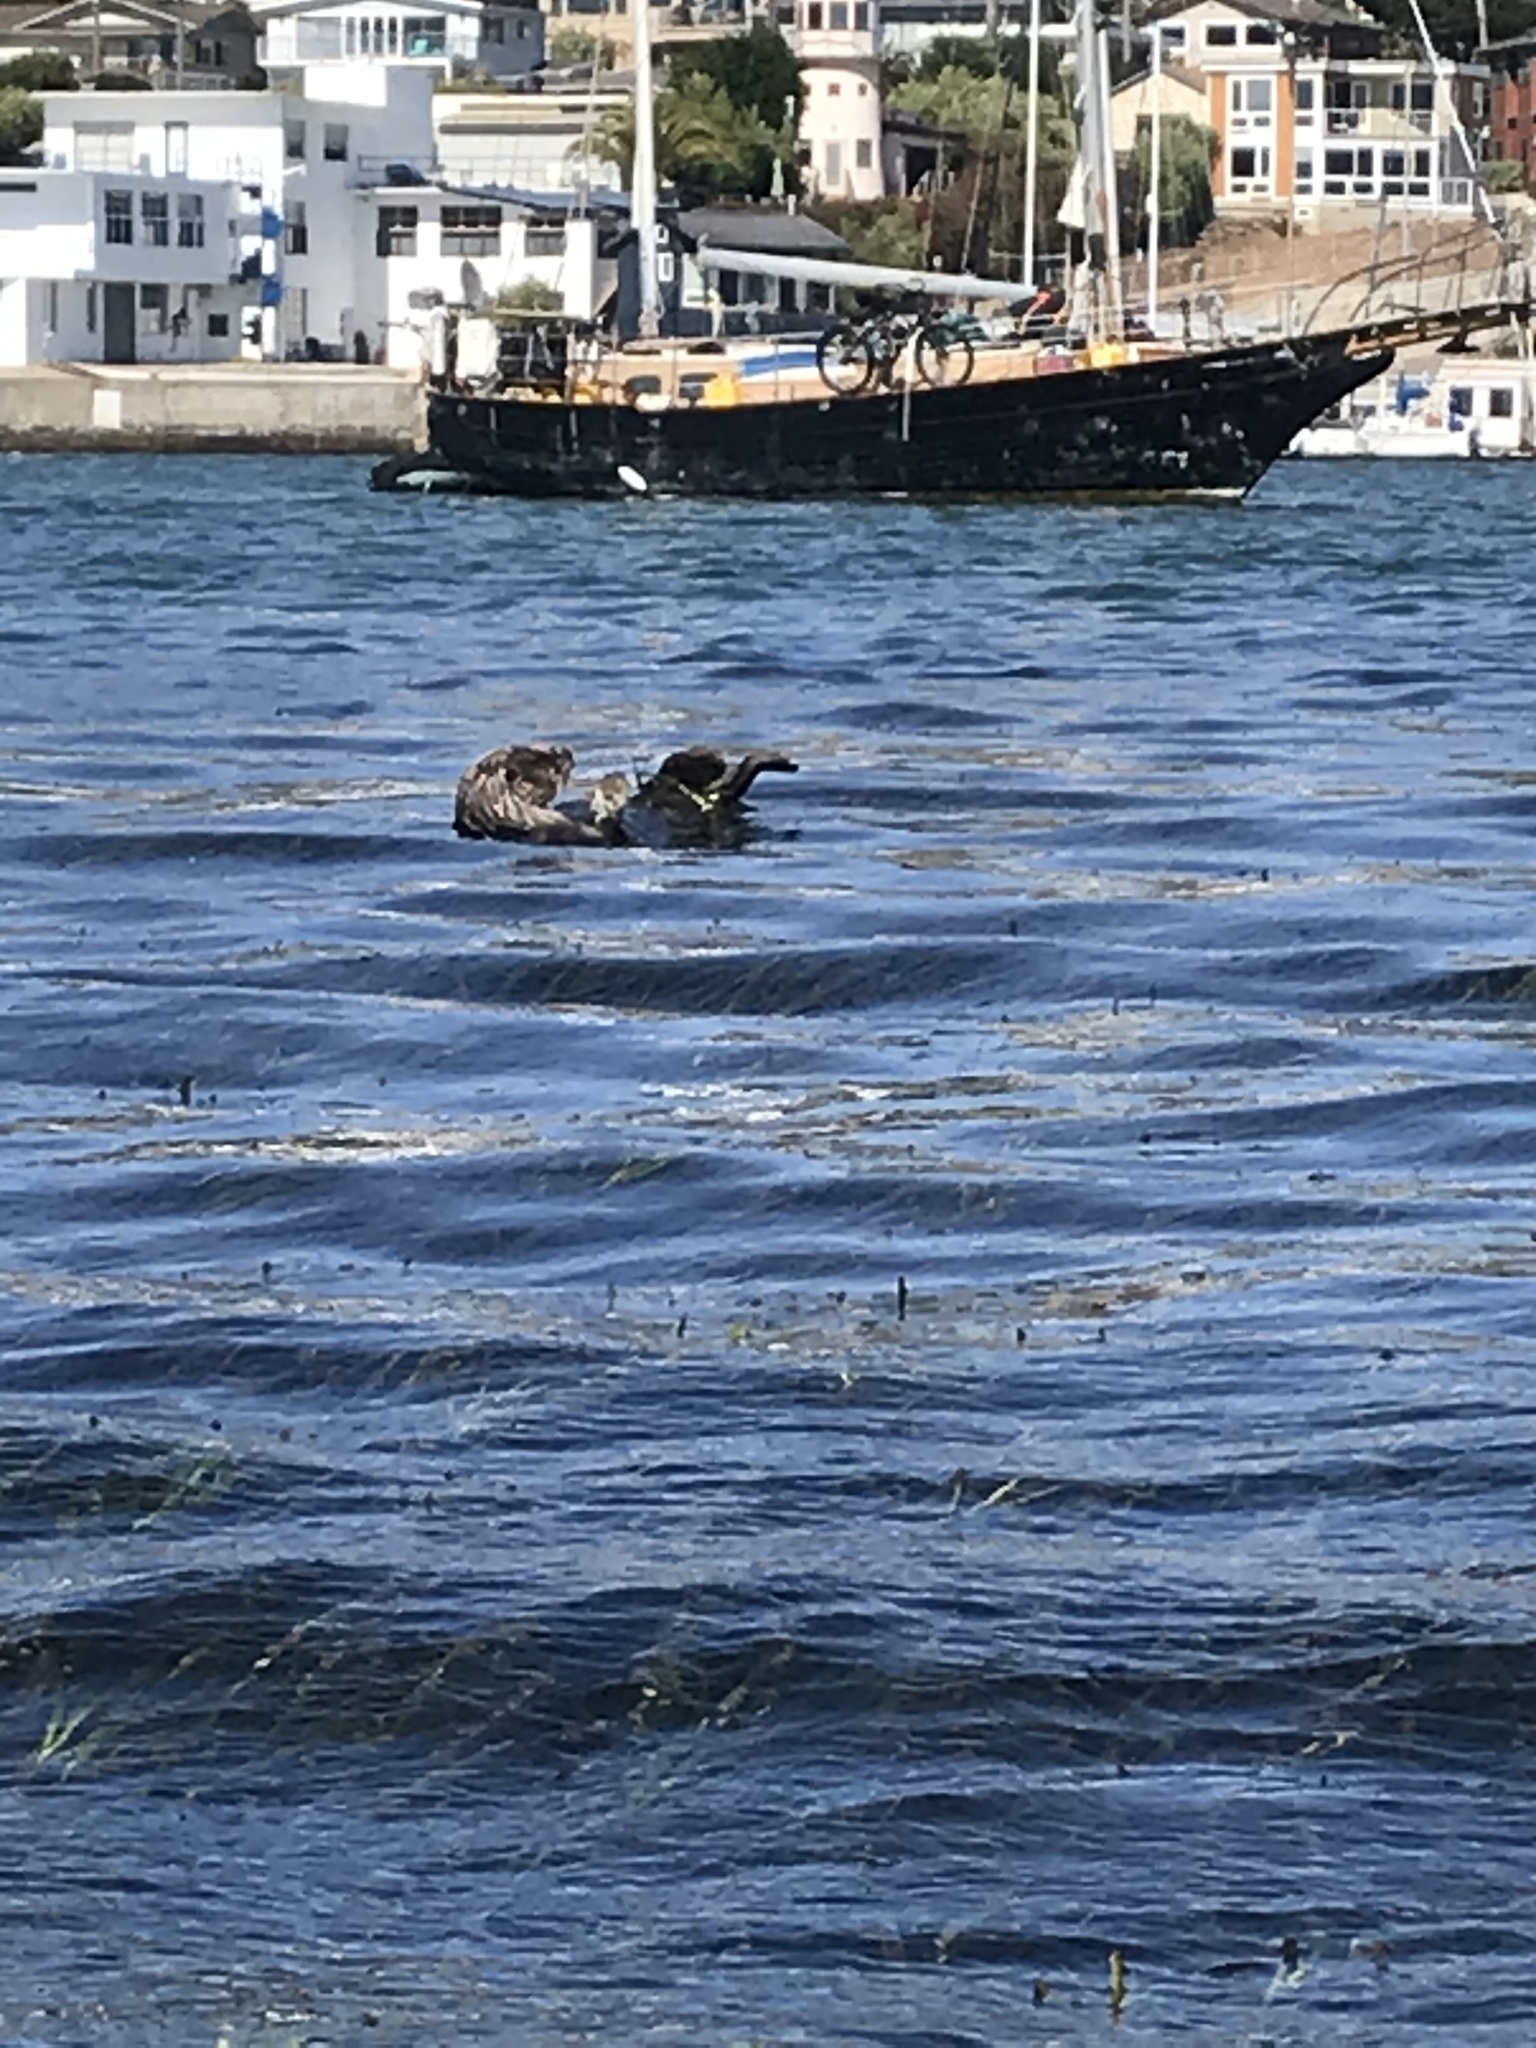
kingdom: Animalia
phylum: Chordata
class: Mammalia
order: Carnivora
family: Mustelidae
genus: Enhydra
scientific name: Enhydra lutris
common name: Sea otter
